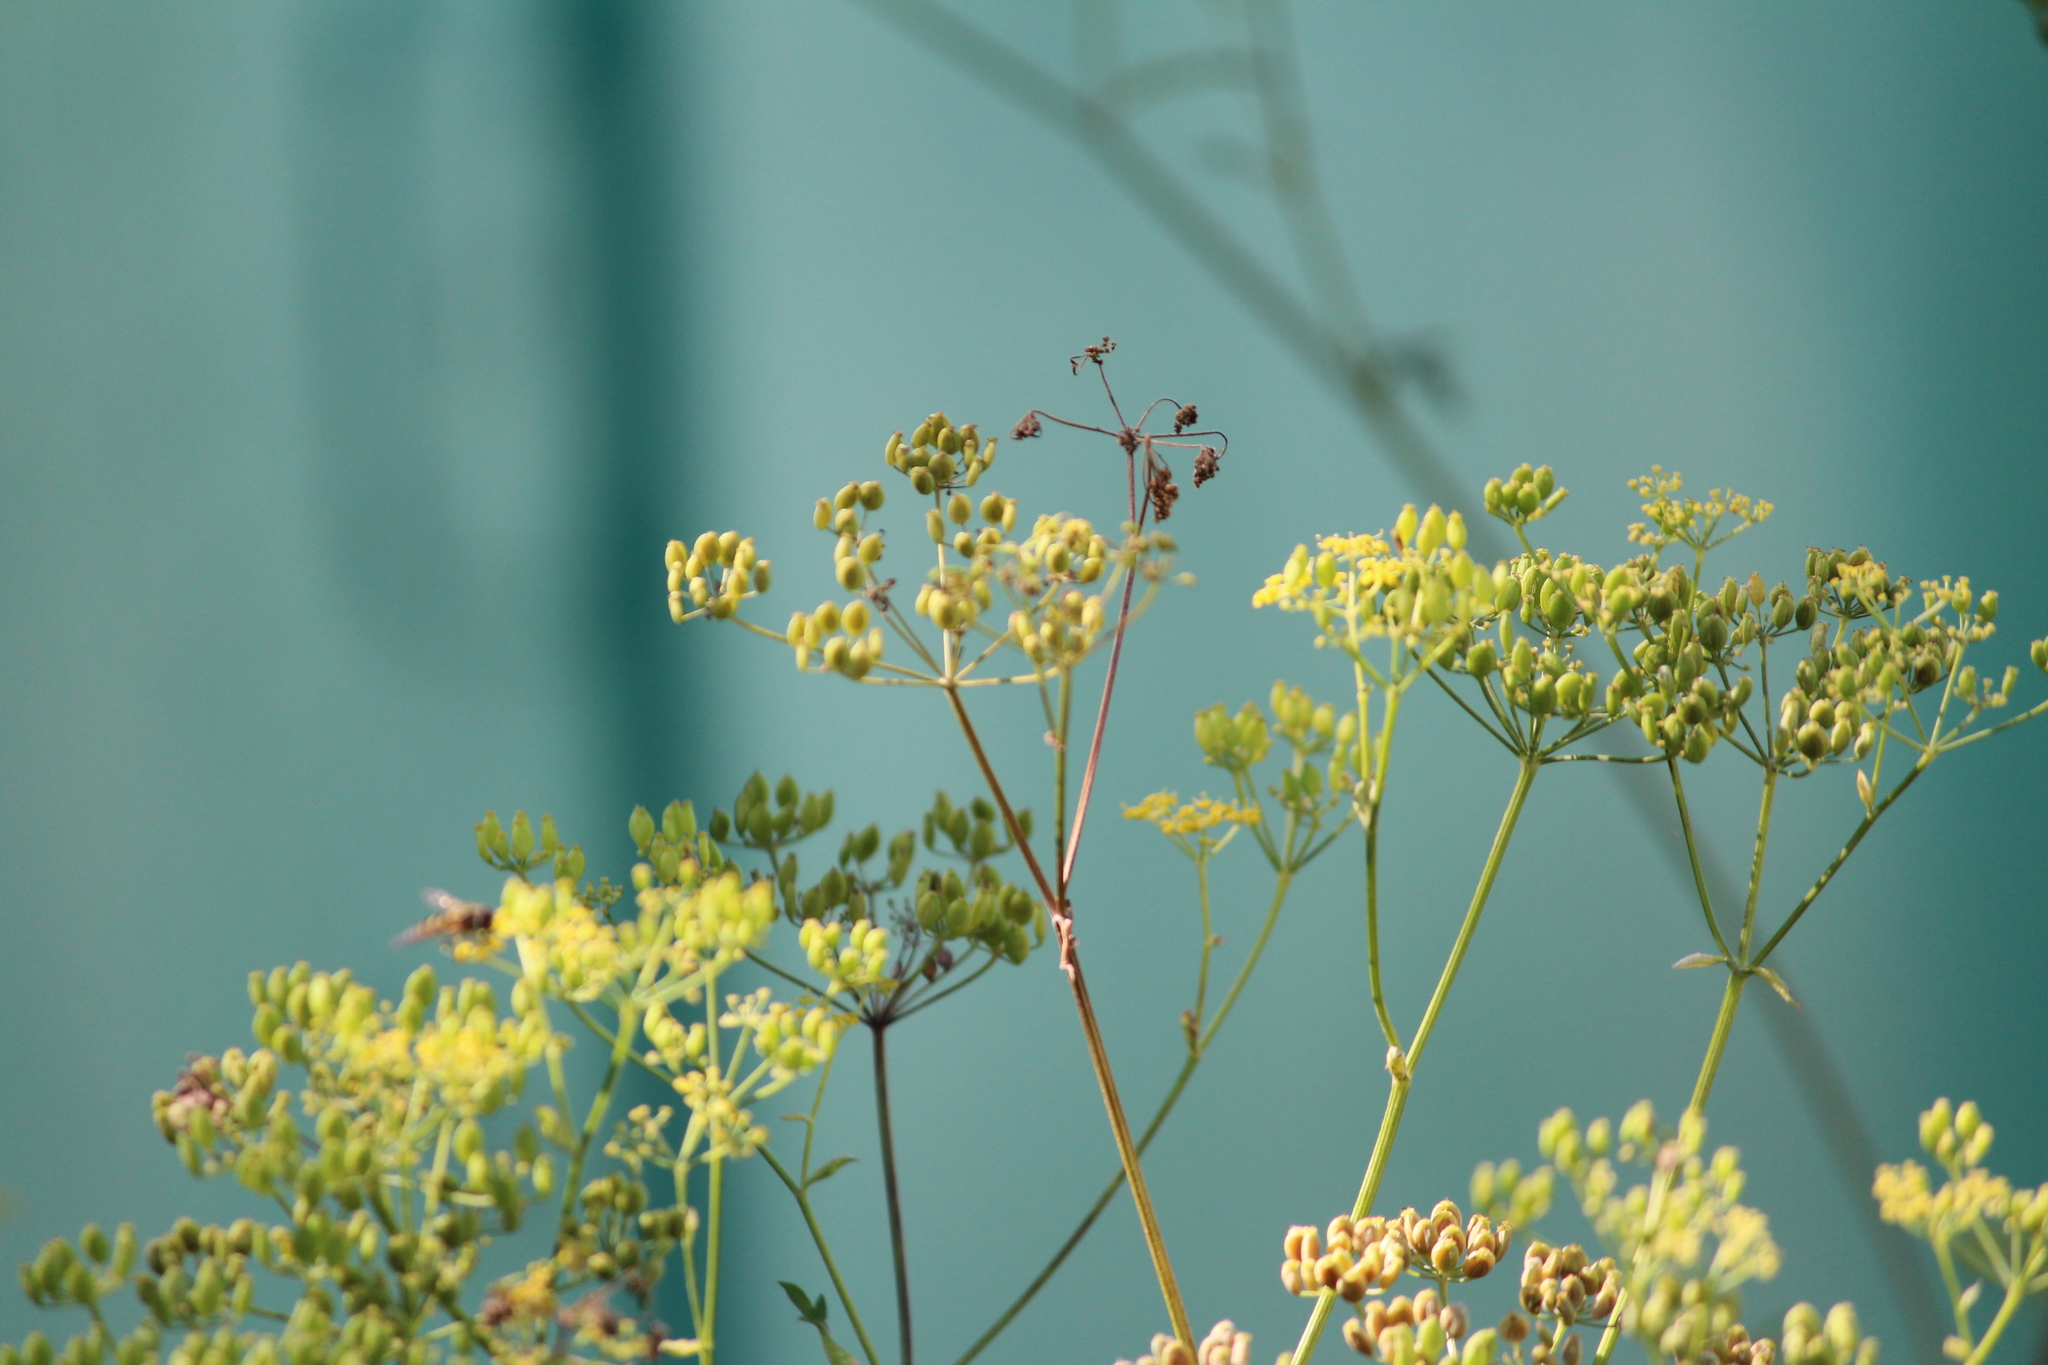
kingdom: Plantae
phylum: Tracheophyta
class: Magnoliopsida
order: Apiales
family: Apiaceae
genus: Pastinaca
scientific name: Pastinaca sativa
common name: Wild parsnip
